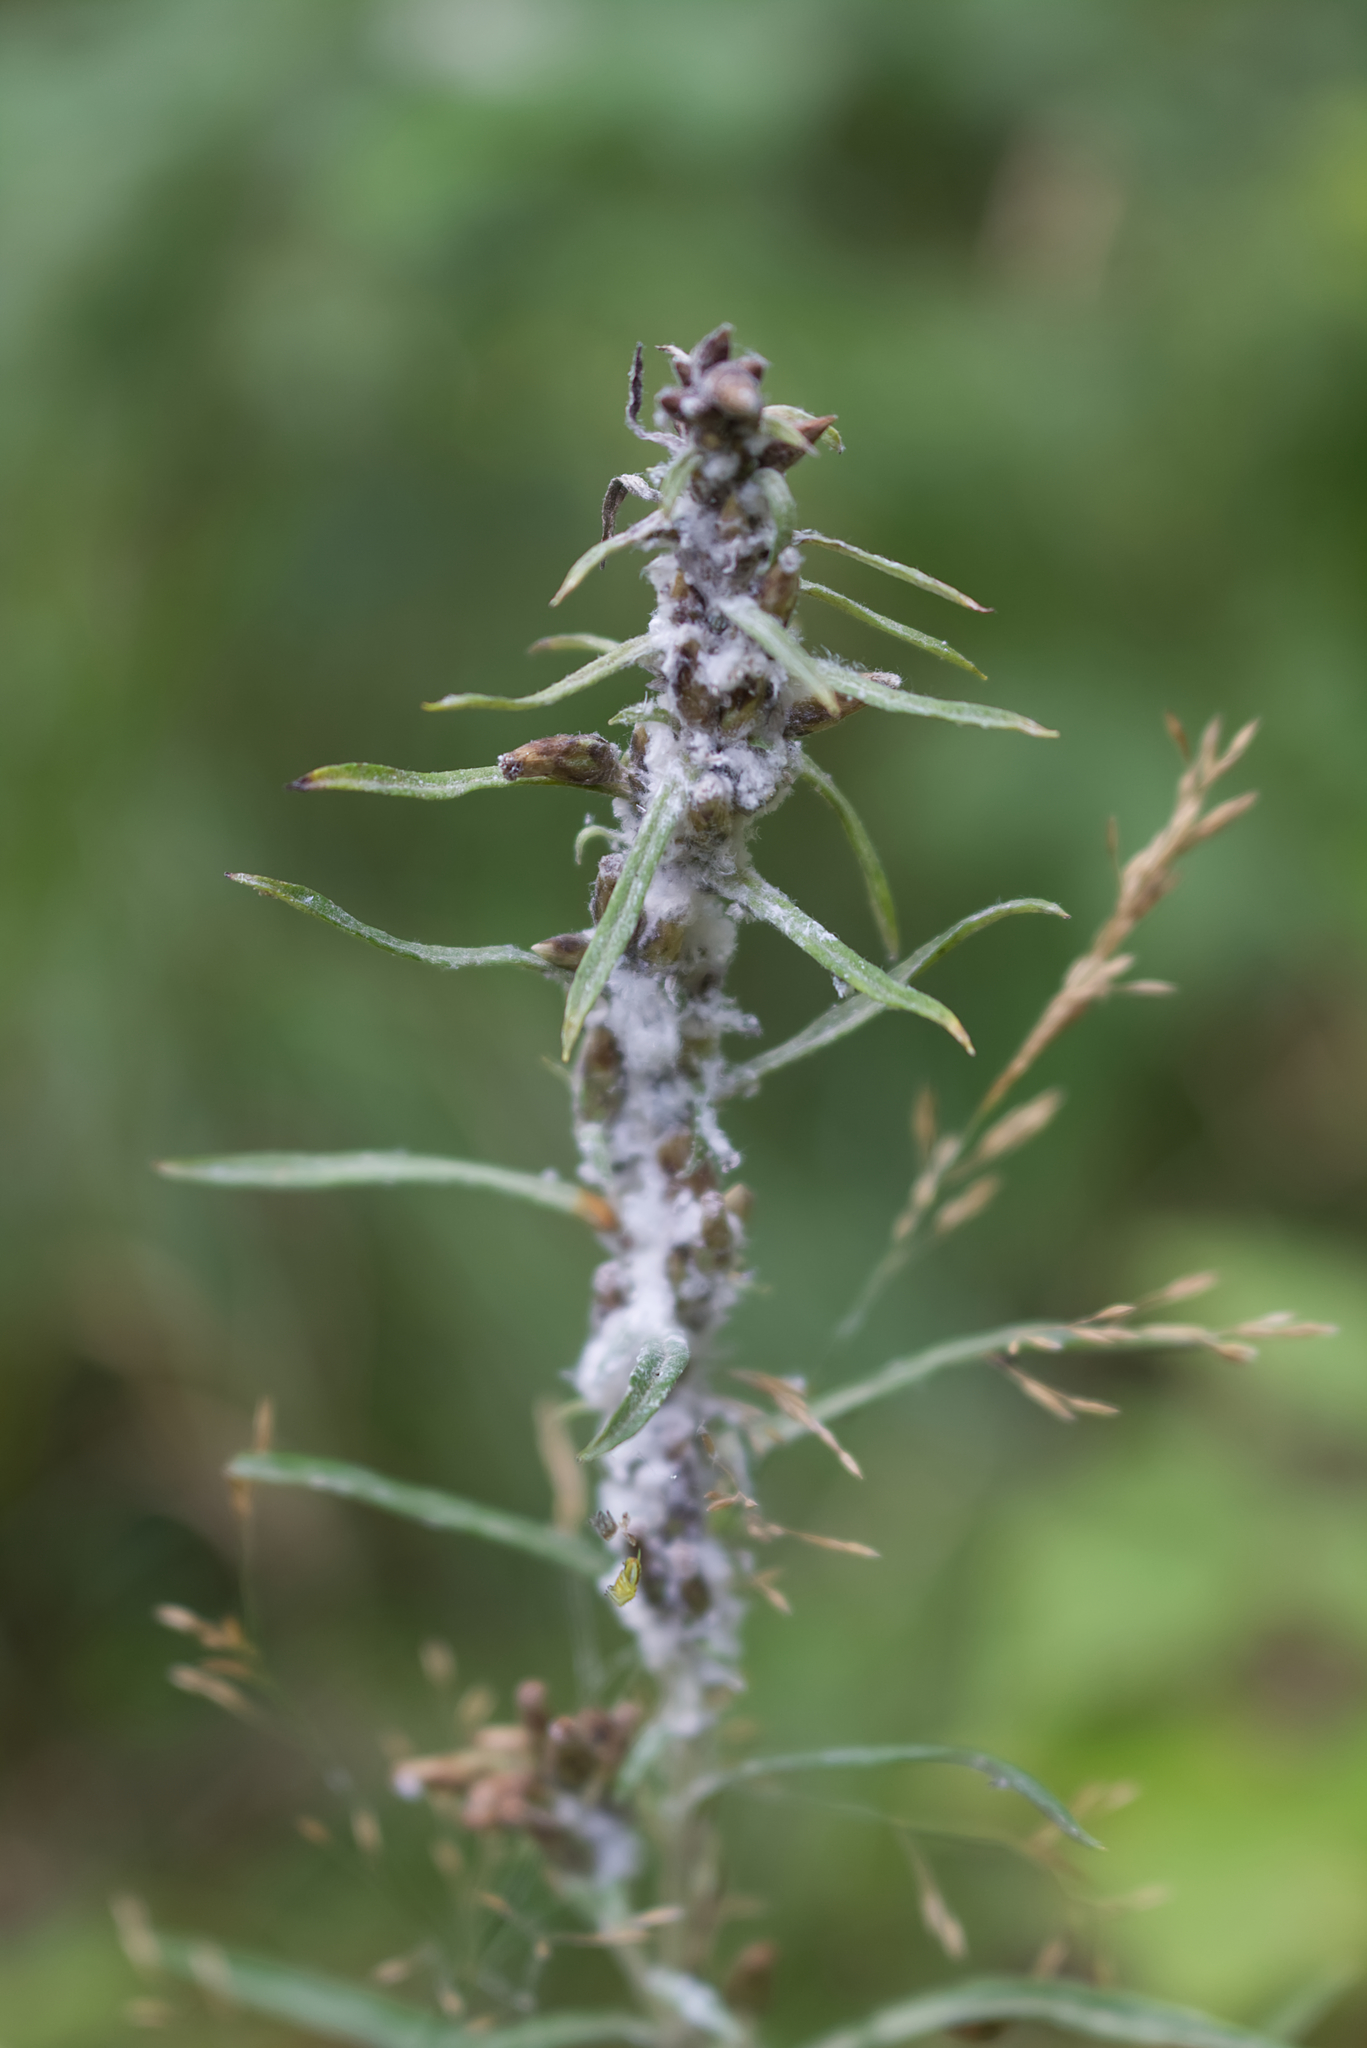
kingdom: Plantae
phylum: Tracheophyta
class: Magnoliopsida
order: Asterales
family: Asteraceae
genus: Omalotheca
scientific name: Omalotheca sylvatica
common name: Heath cudweed
